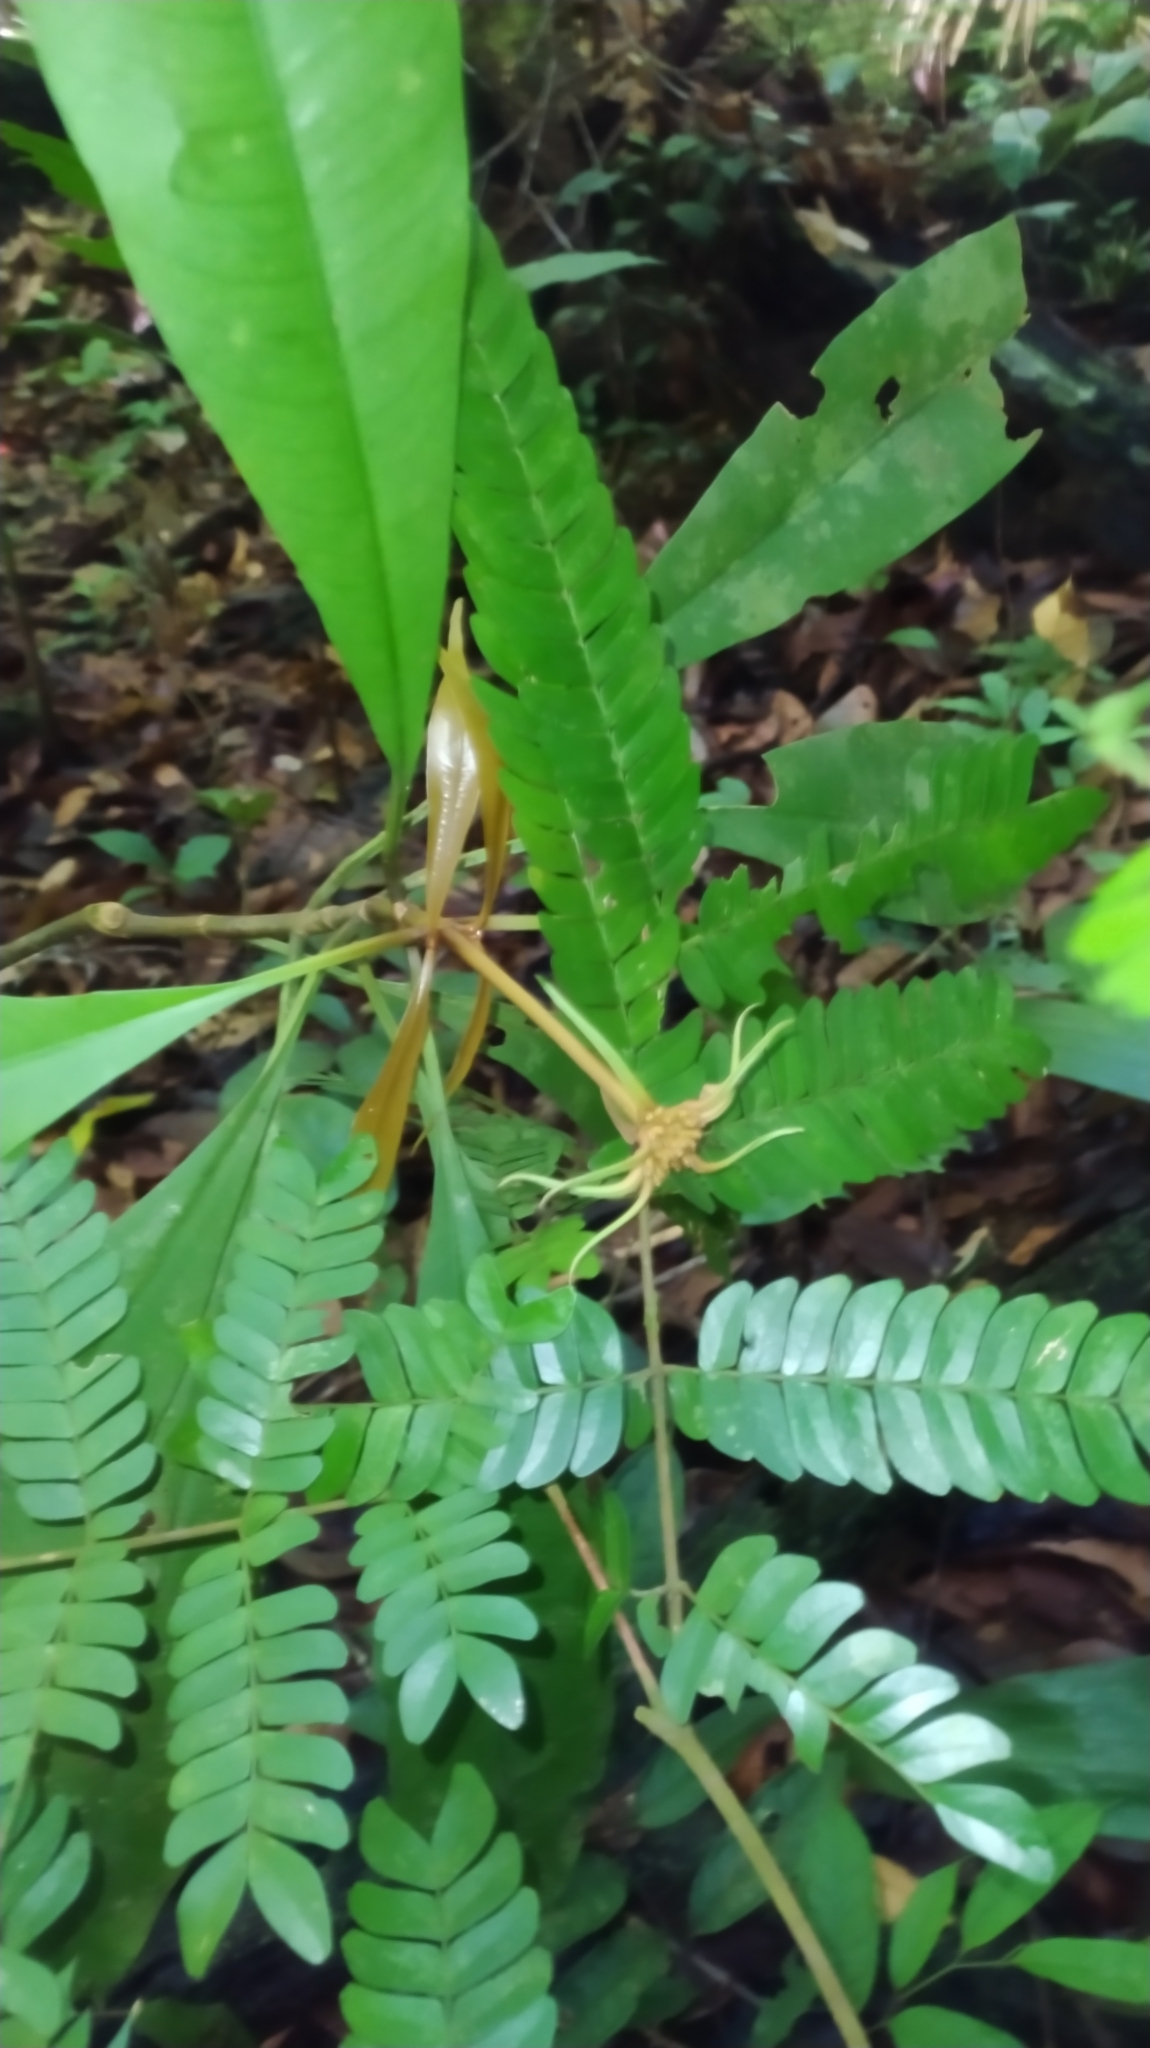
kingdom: Plantae
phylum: Tracheophyta
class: Magnoliopsida
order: Gentianales
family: Rubiaceae
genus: Carapichea
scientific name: Carapichea ligularis
